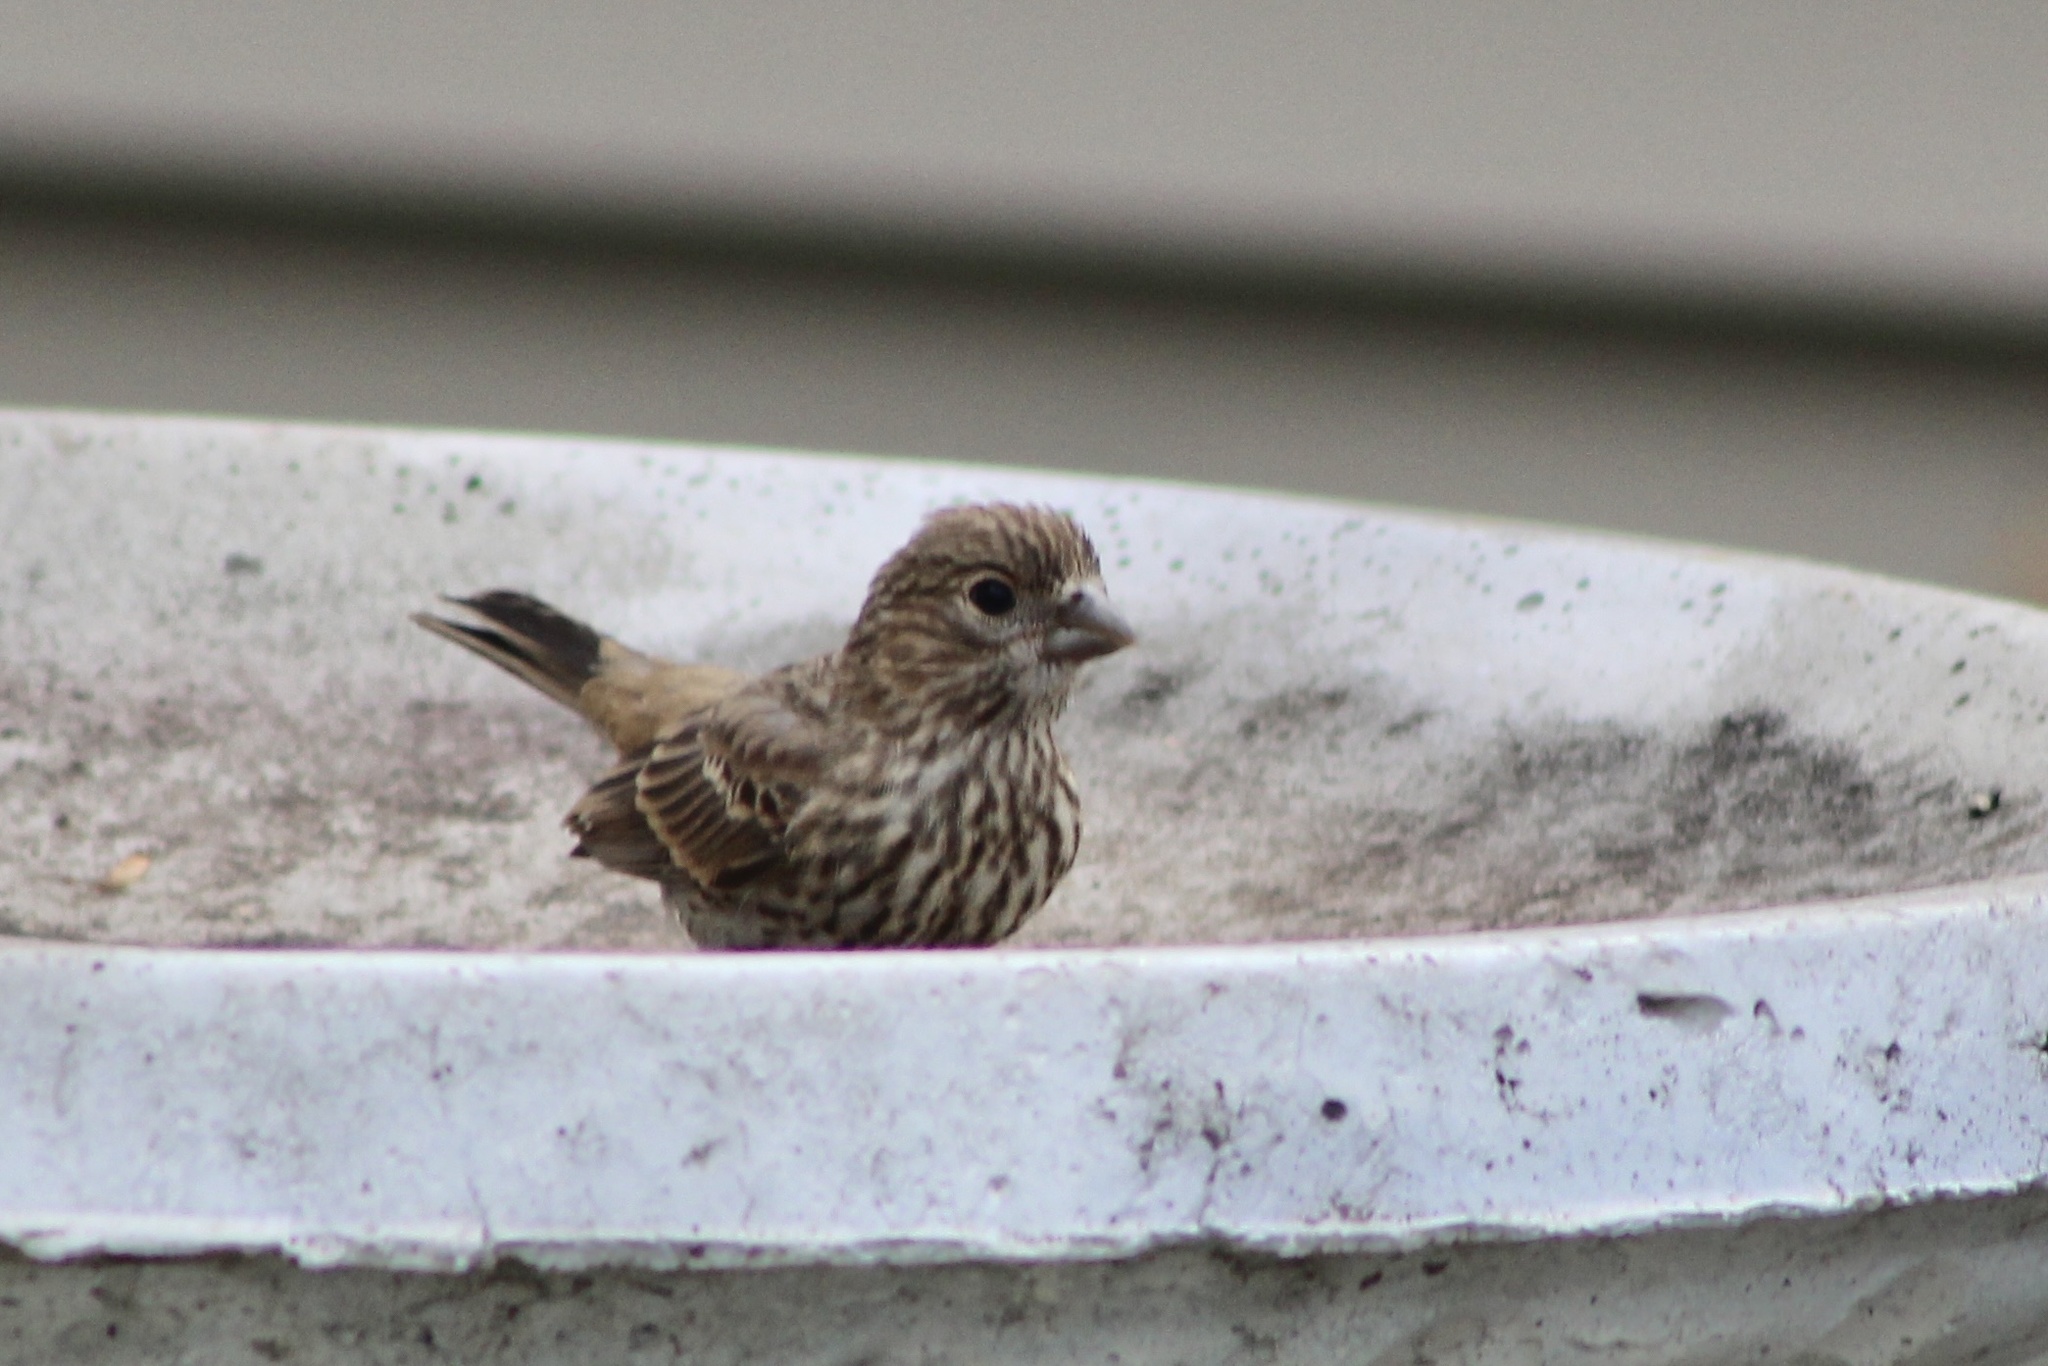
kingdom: Animalia
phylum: Chordata
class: Aves
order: Passeriformes
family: Fringillidae
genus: Haemorhous
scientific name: Haemorhous mexicanus
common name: House finch
